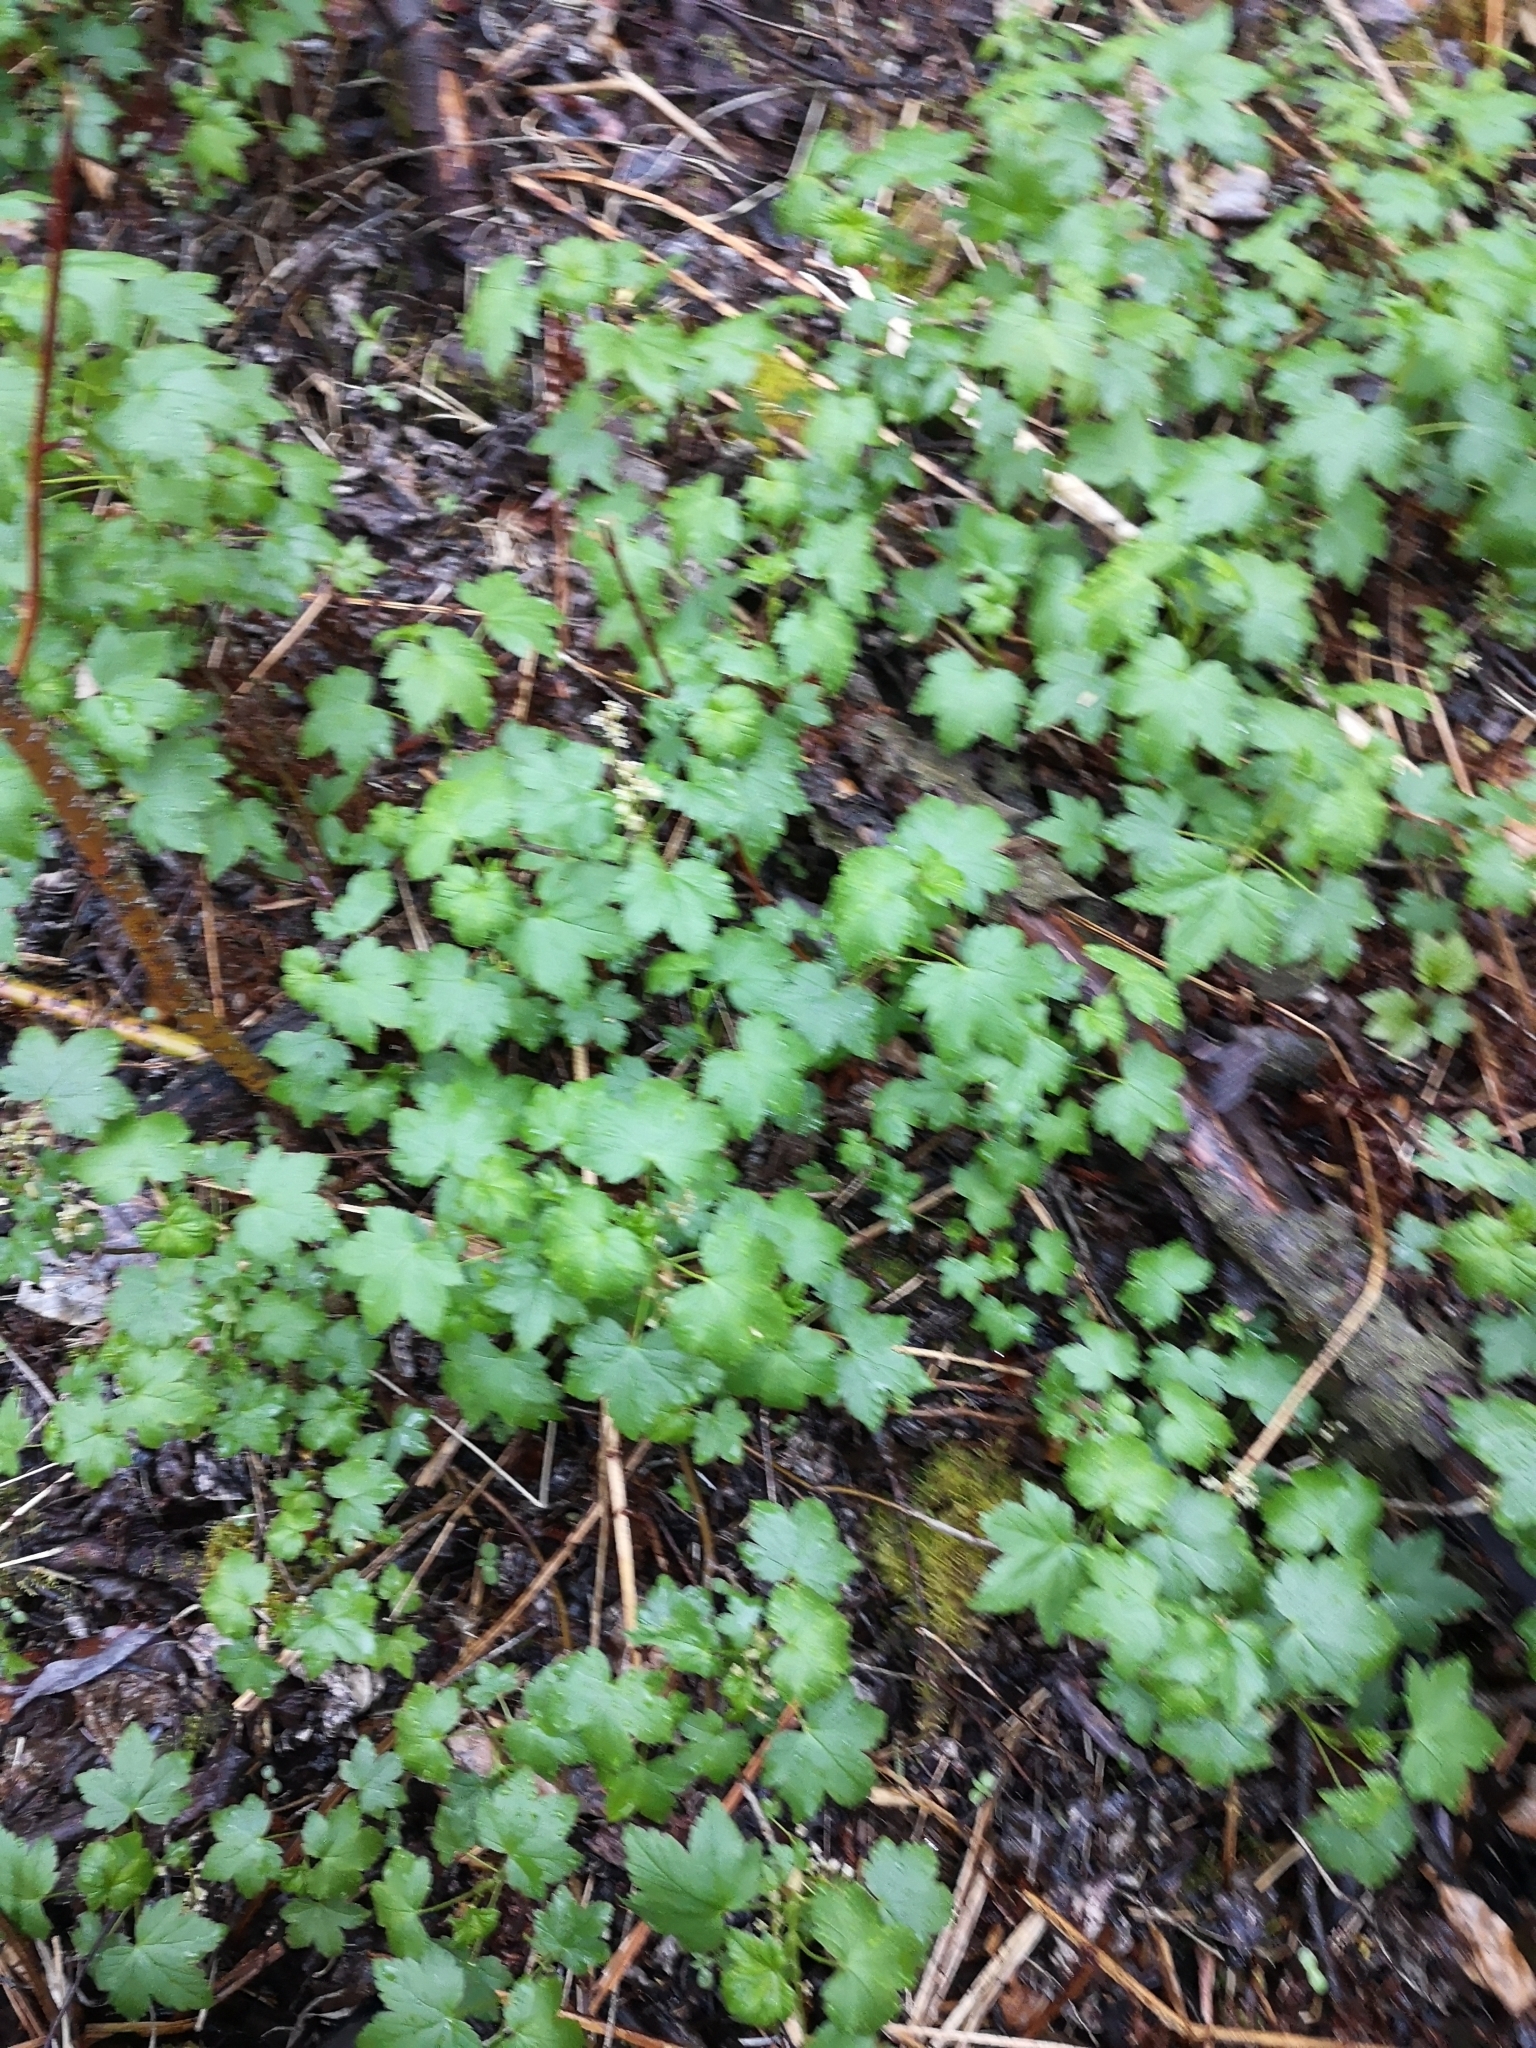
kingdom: Plantae
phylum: Tracheophyta
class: Magnoliopsida
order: Saxifragales
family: Grossulariaceae
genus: Ribes
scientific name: Ribes glandulosum
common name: Skunk currant
